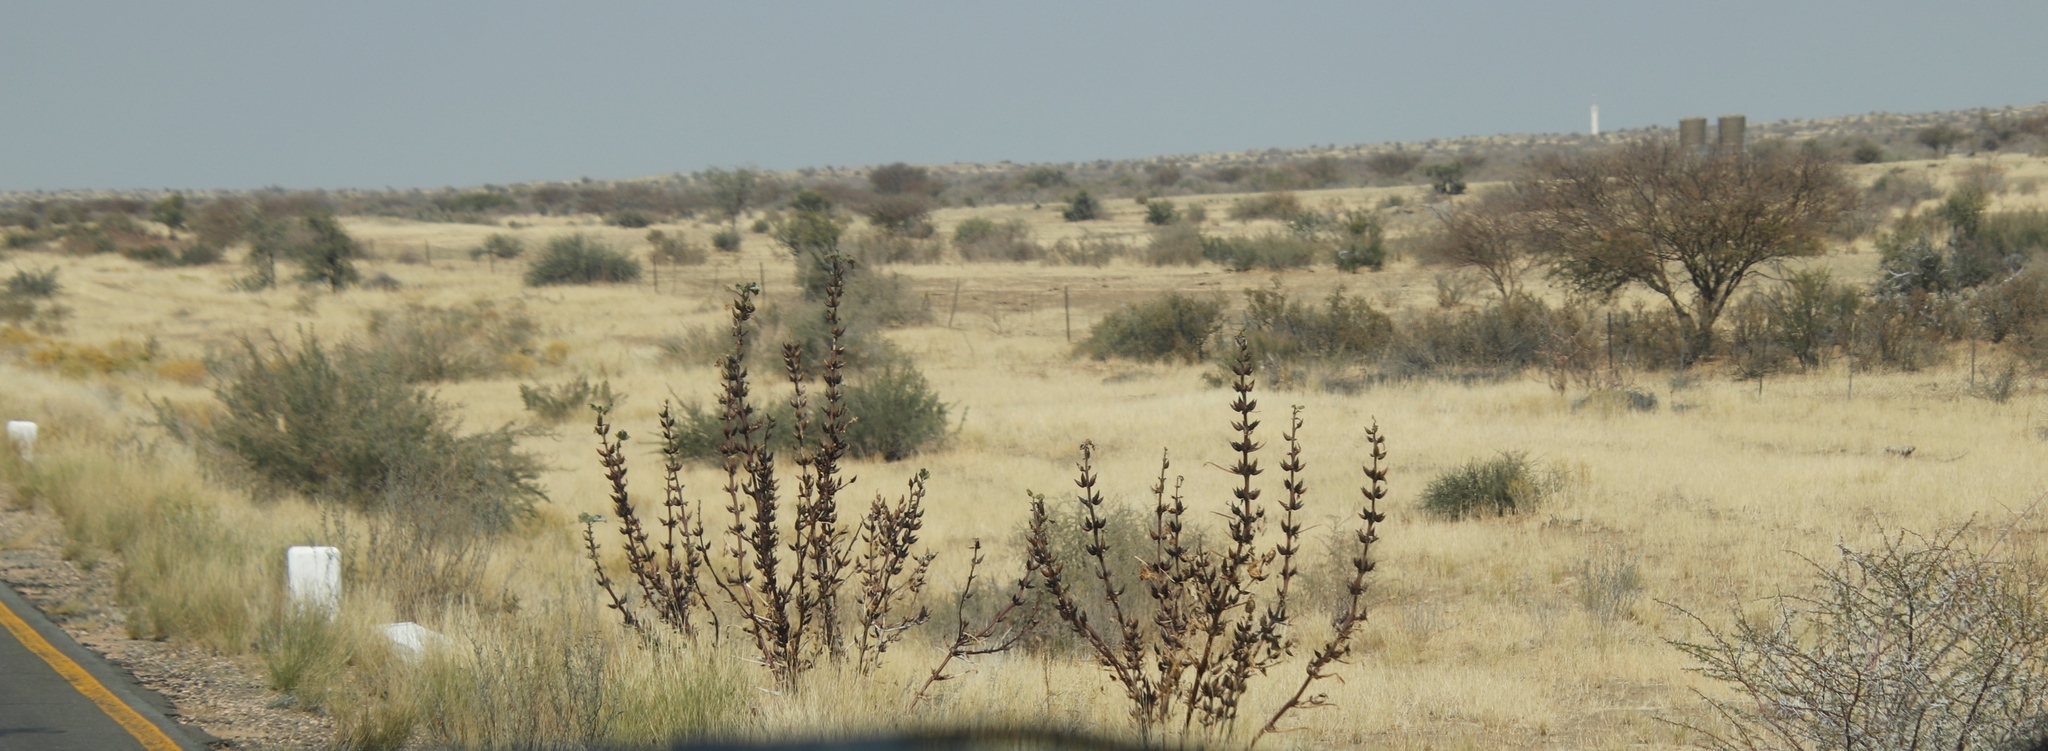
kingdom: Plantae
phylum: Tracheophyta
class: Magnoliopsida
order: Lamiales
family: Pedaliaceae
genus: Rogeria
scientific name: Rogeria longiflora
